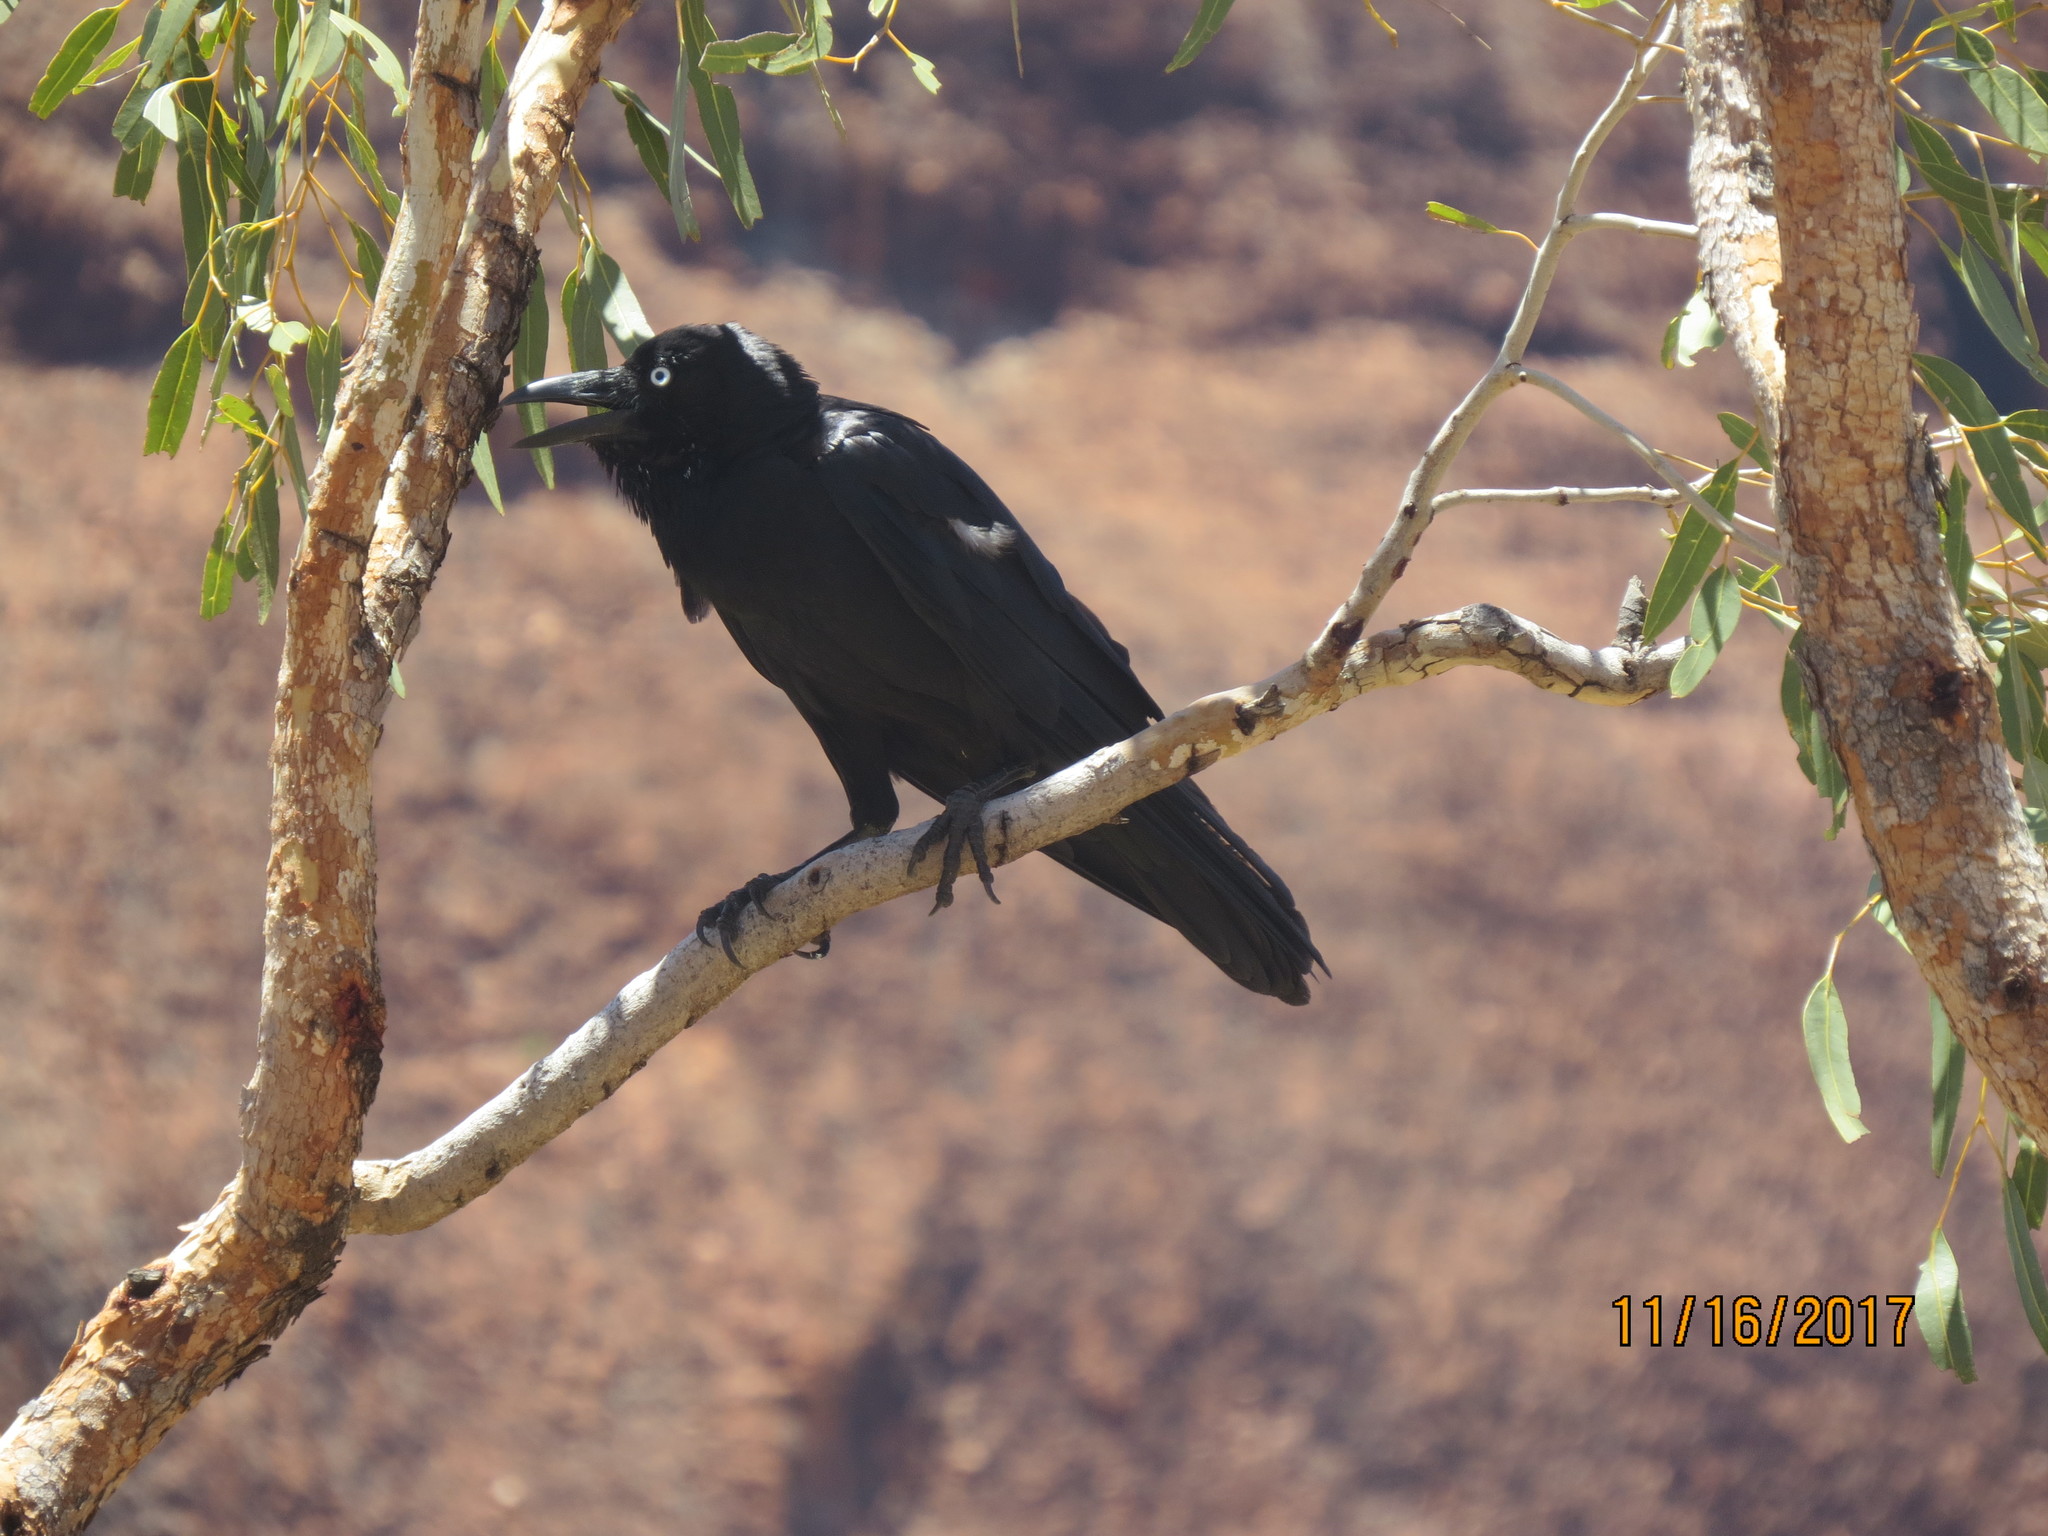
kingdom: Animalia
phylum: Chordata
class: Aves
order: Passeriformes
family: Corvidae
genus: Corvus
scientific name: Corvus coronoides
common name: Australian raven
